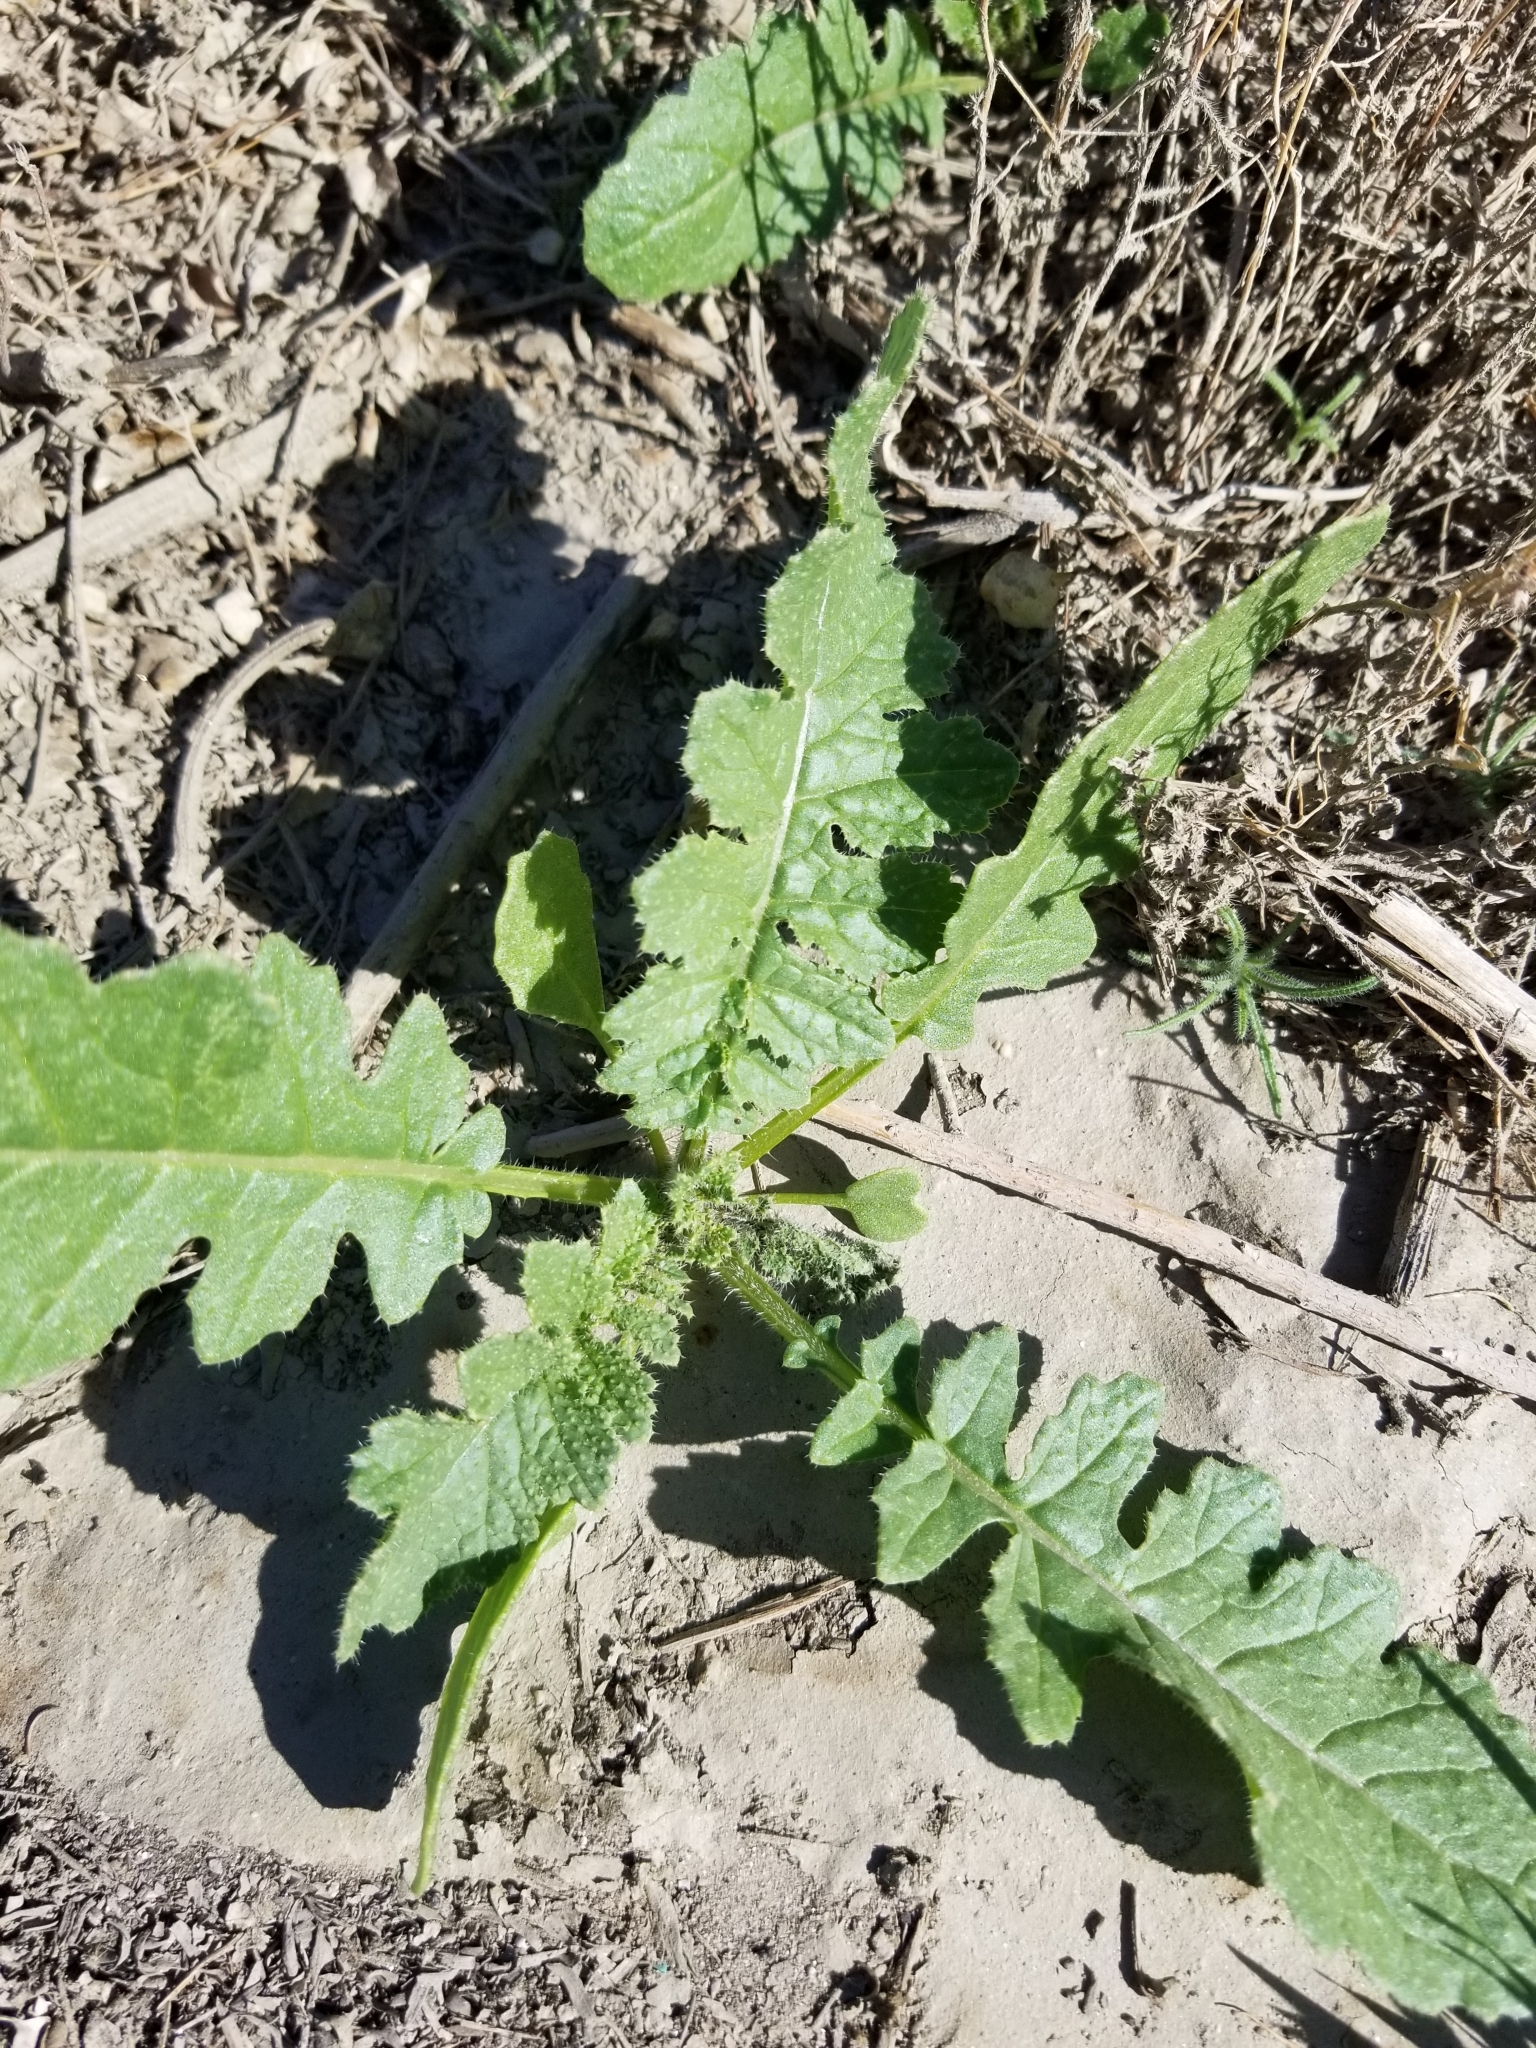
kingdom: Plantae
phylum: Tracheophyta
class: Magnoliopsida
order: Brassicales
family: Brassicaceae
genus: Brassica
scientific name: Brassica tournefortii
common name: Pale cabbage
